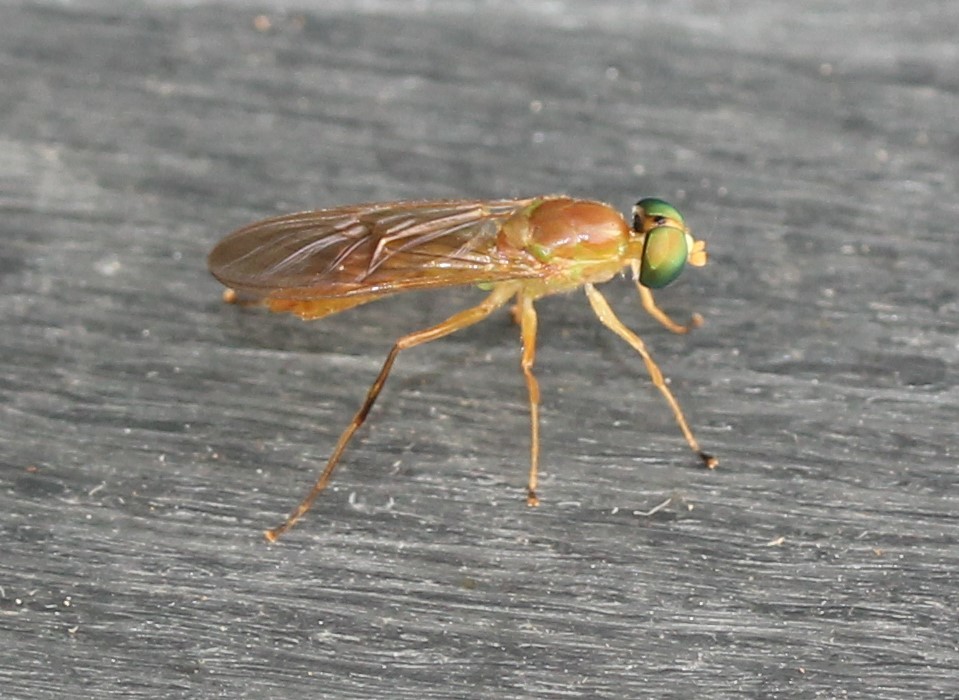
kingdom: Animalia
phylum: Arthropoda
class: Insecta
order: Diptera
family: Stratiomyidae
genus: Ptecticus
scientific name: Ptecticus trivittatus
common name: Compost fly
